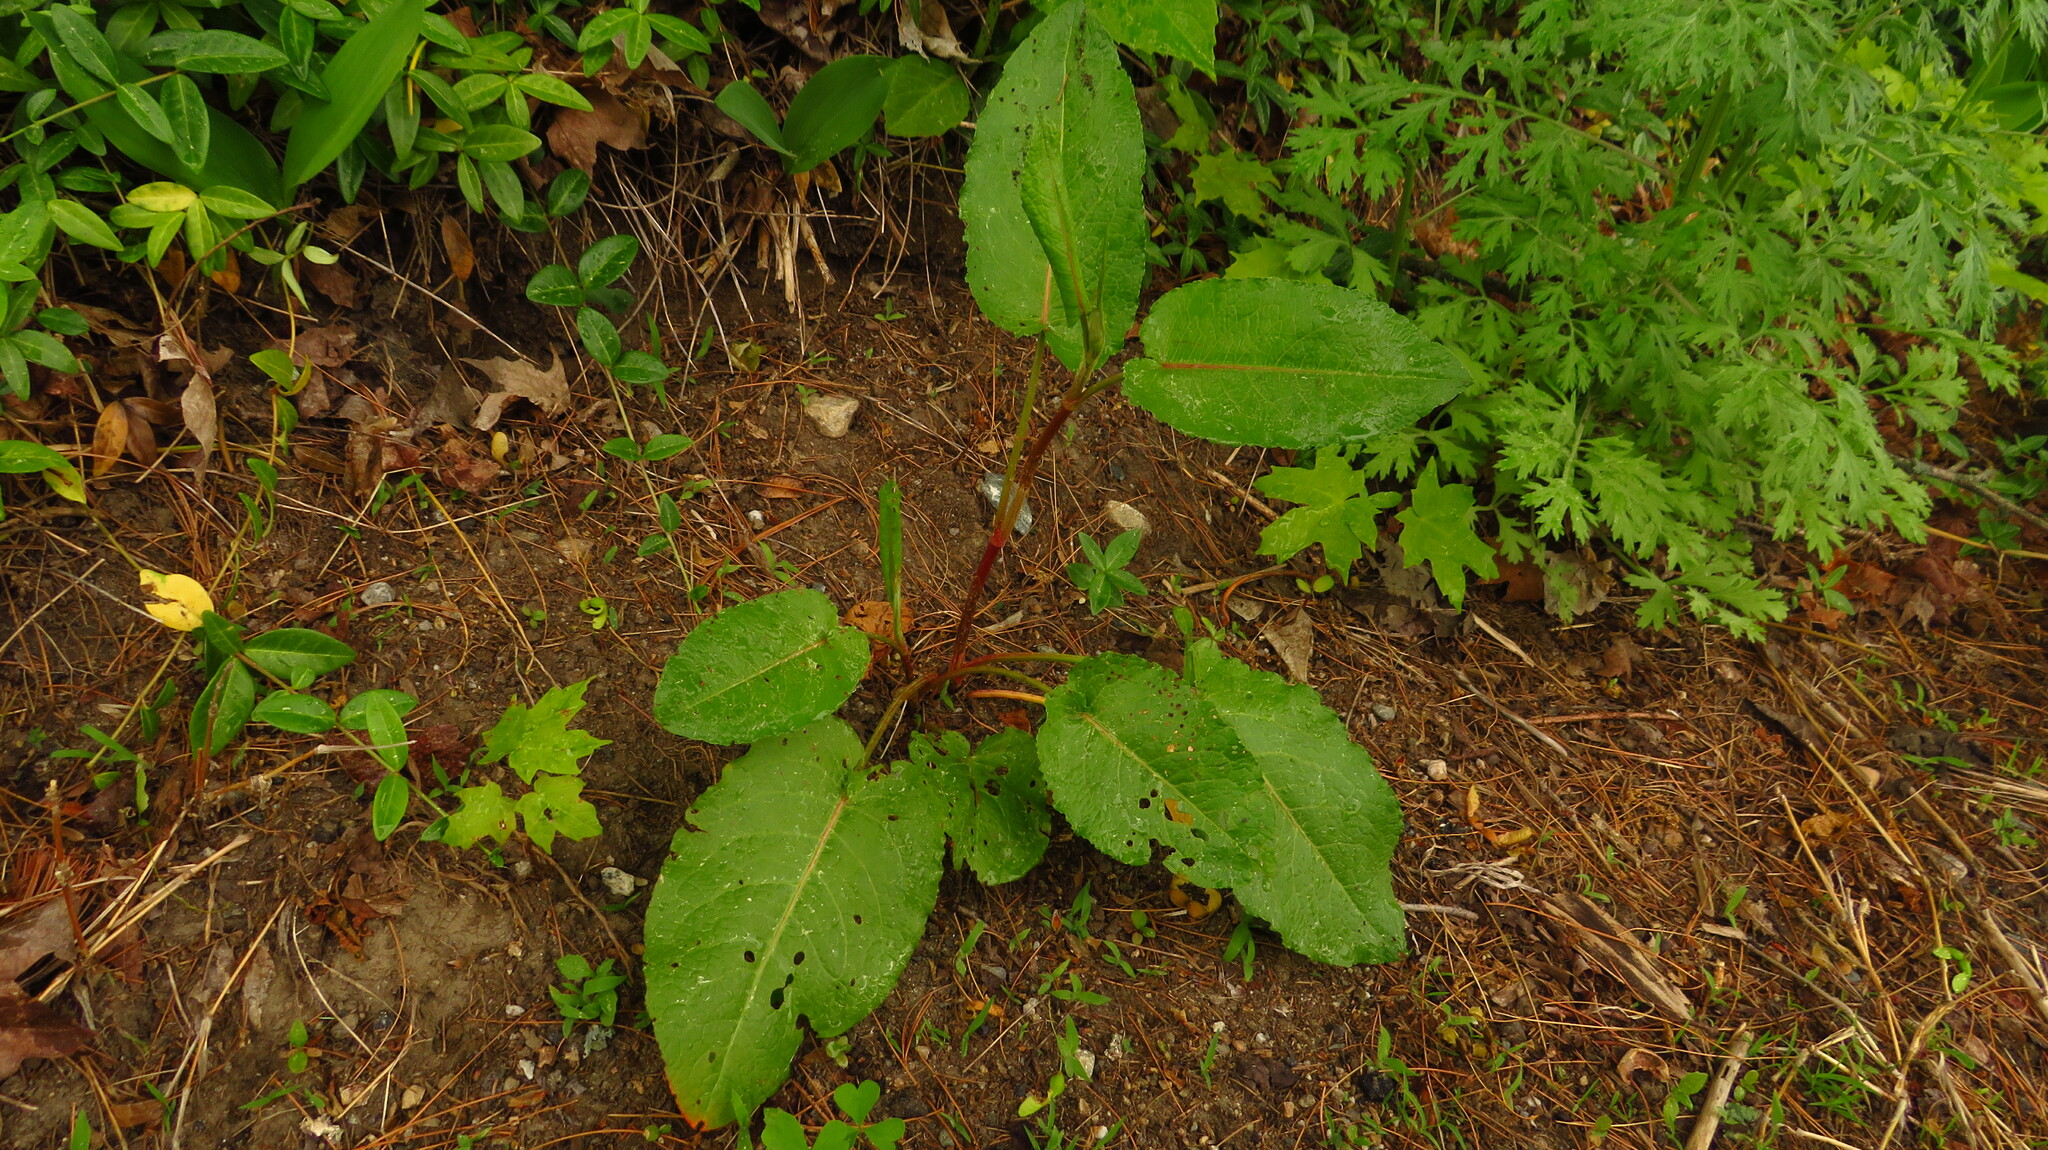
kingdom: Plantae
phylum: Tracheophyta
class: Magnoliopsida
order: Caryophyllales
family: Polygonaceae
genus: Rumex
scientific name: Rumex obtusifolius
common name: Bitter dock
